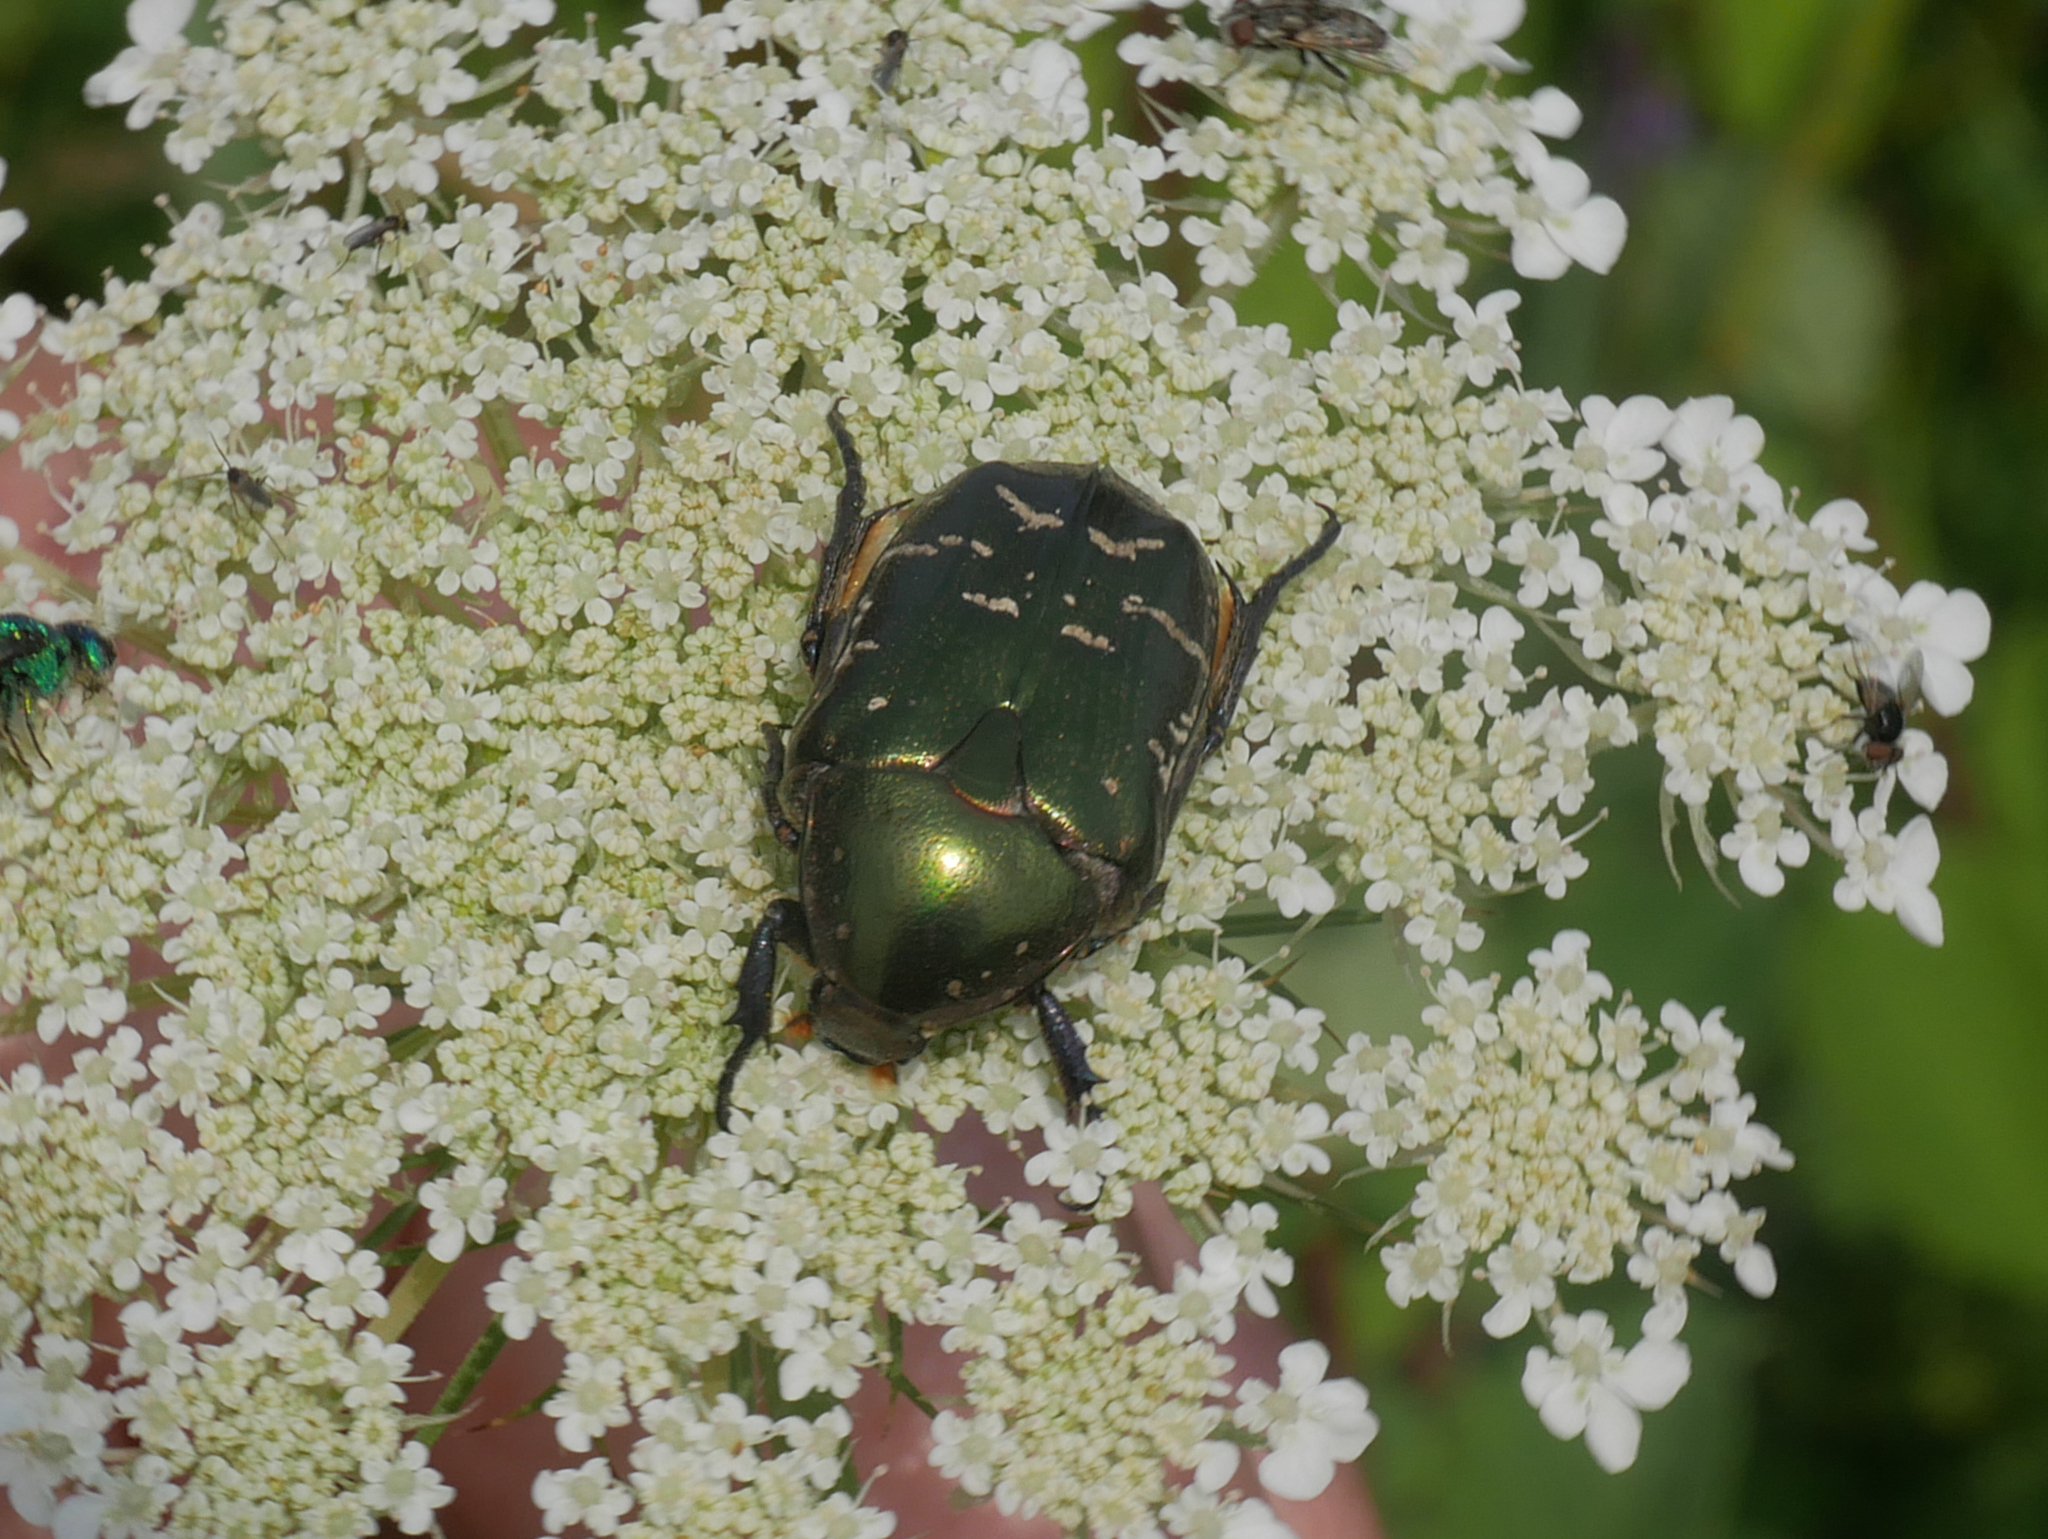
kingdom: Animalia
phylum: Arthropoda
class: Insecta
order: Coleoptera
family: Scarabaeidae
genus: Cetonia
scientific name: Cetonia aurata
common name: Rose chafer
